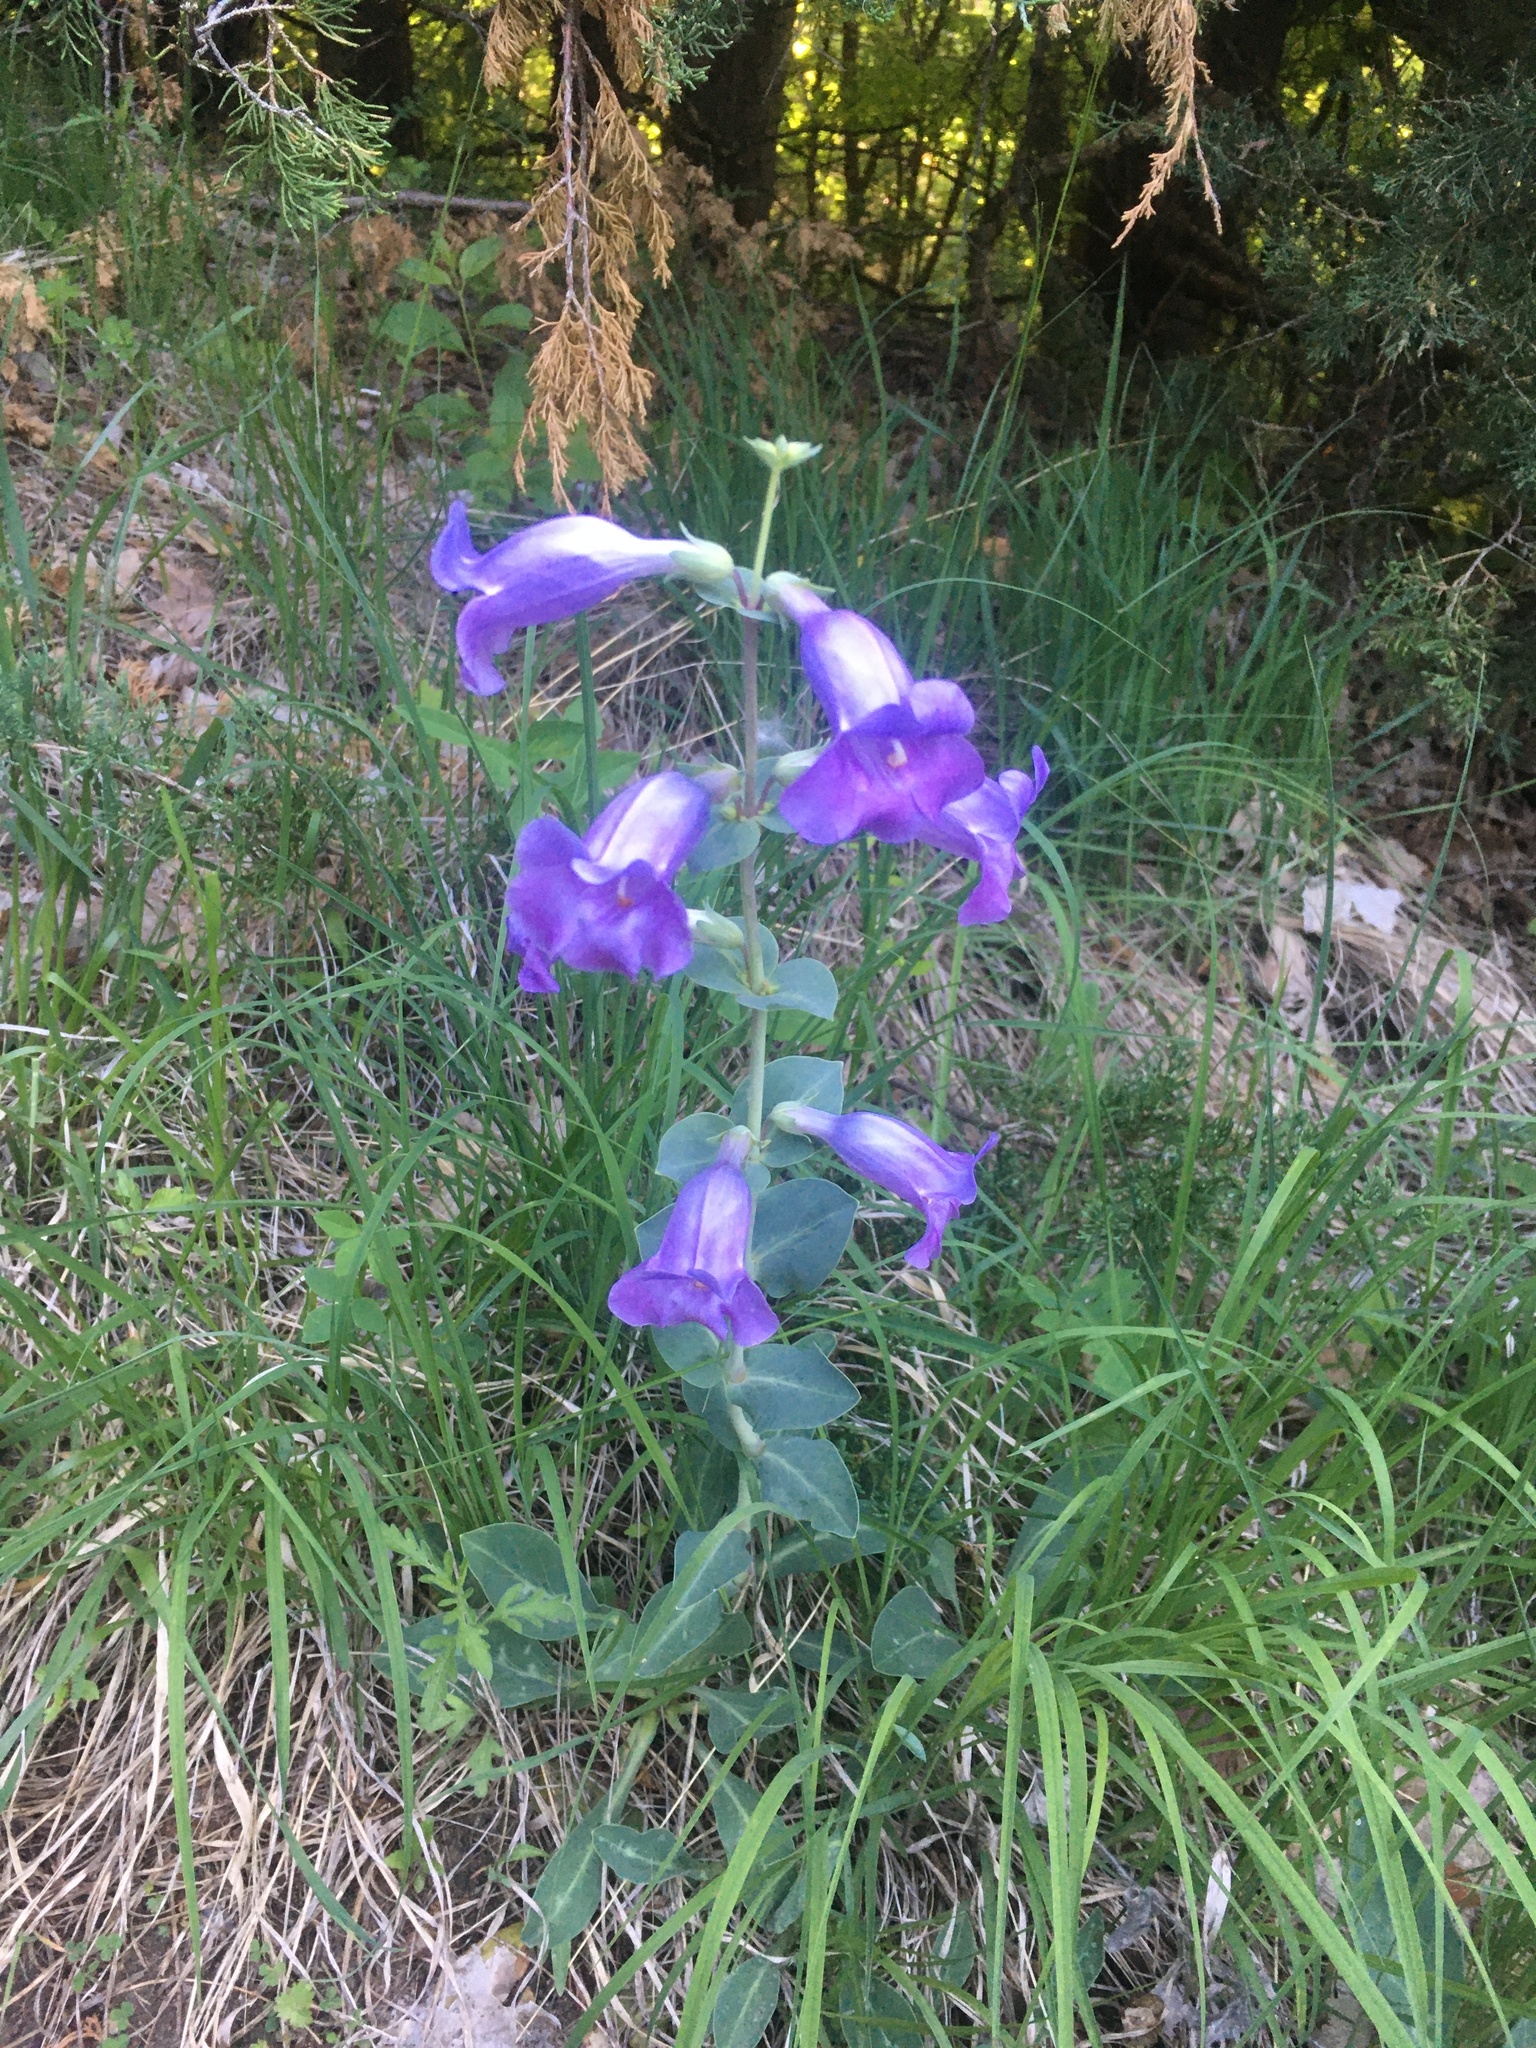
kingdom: Plantae
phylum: Tracheophyta
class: Magnoliopsida
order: Lamiales
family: Plantaginaceae
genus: Penstemon
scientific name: Penstemon
